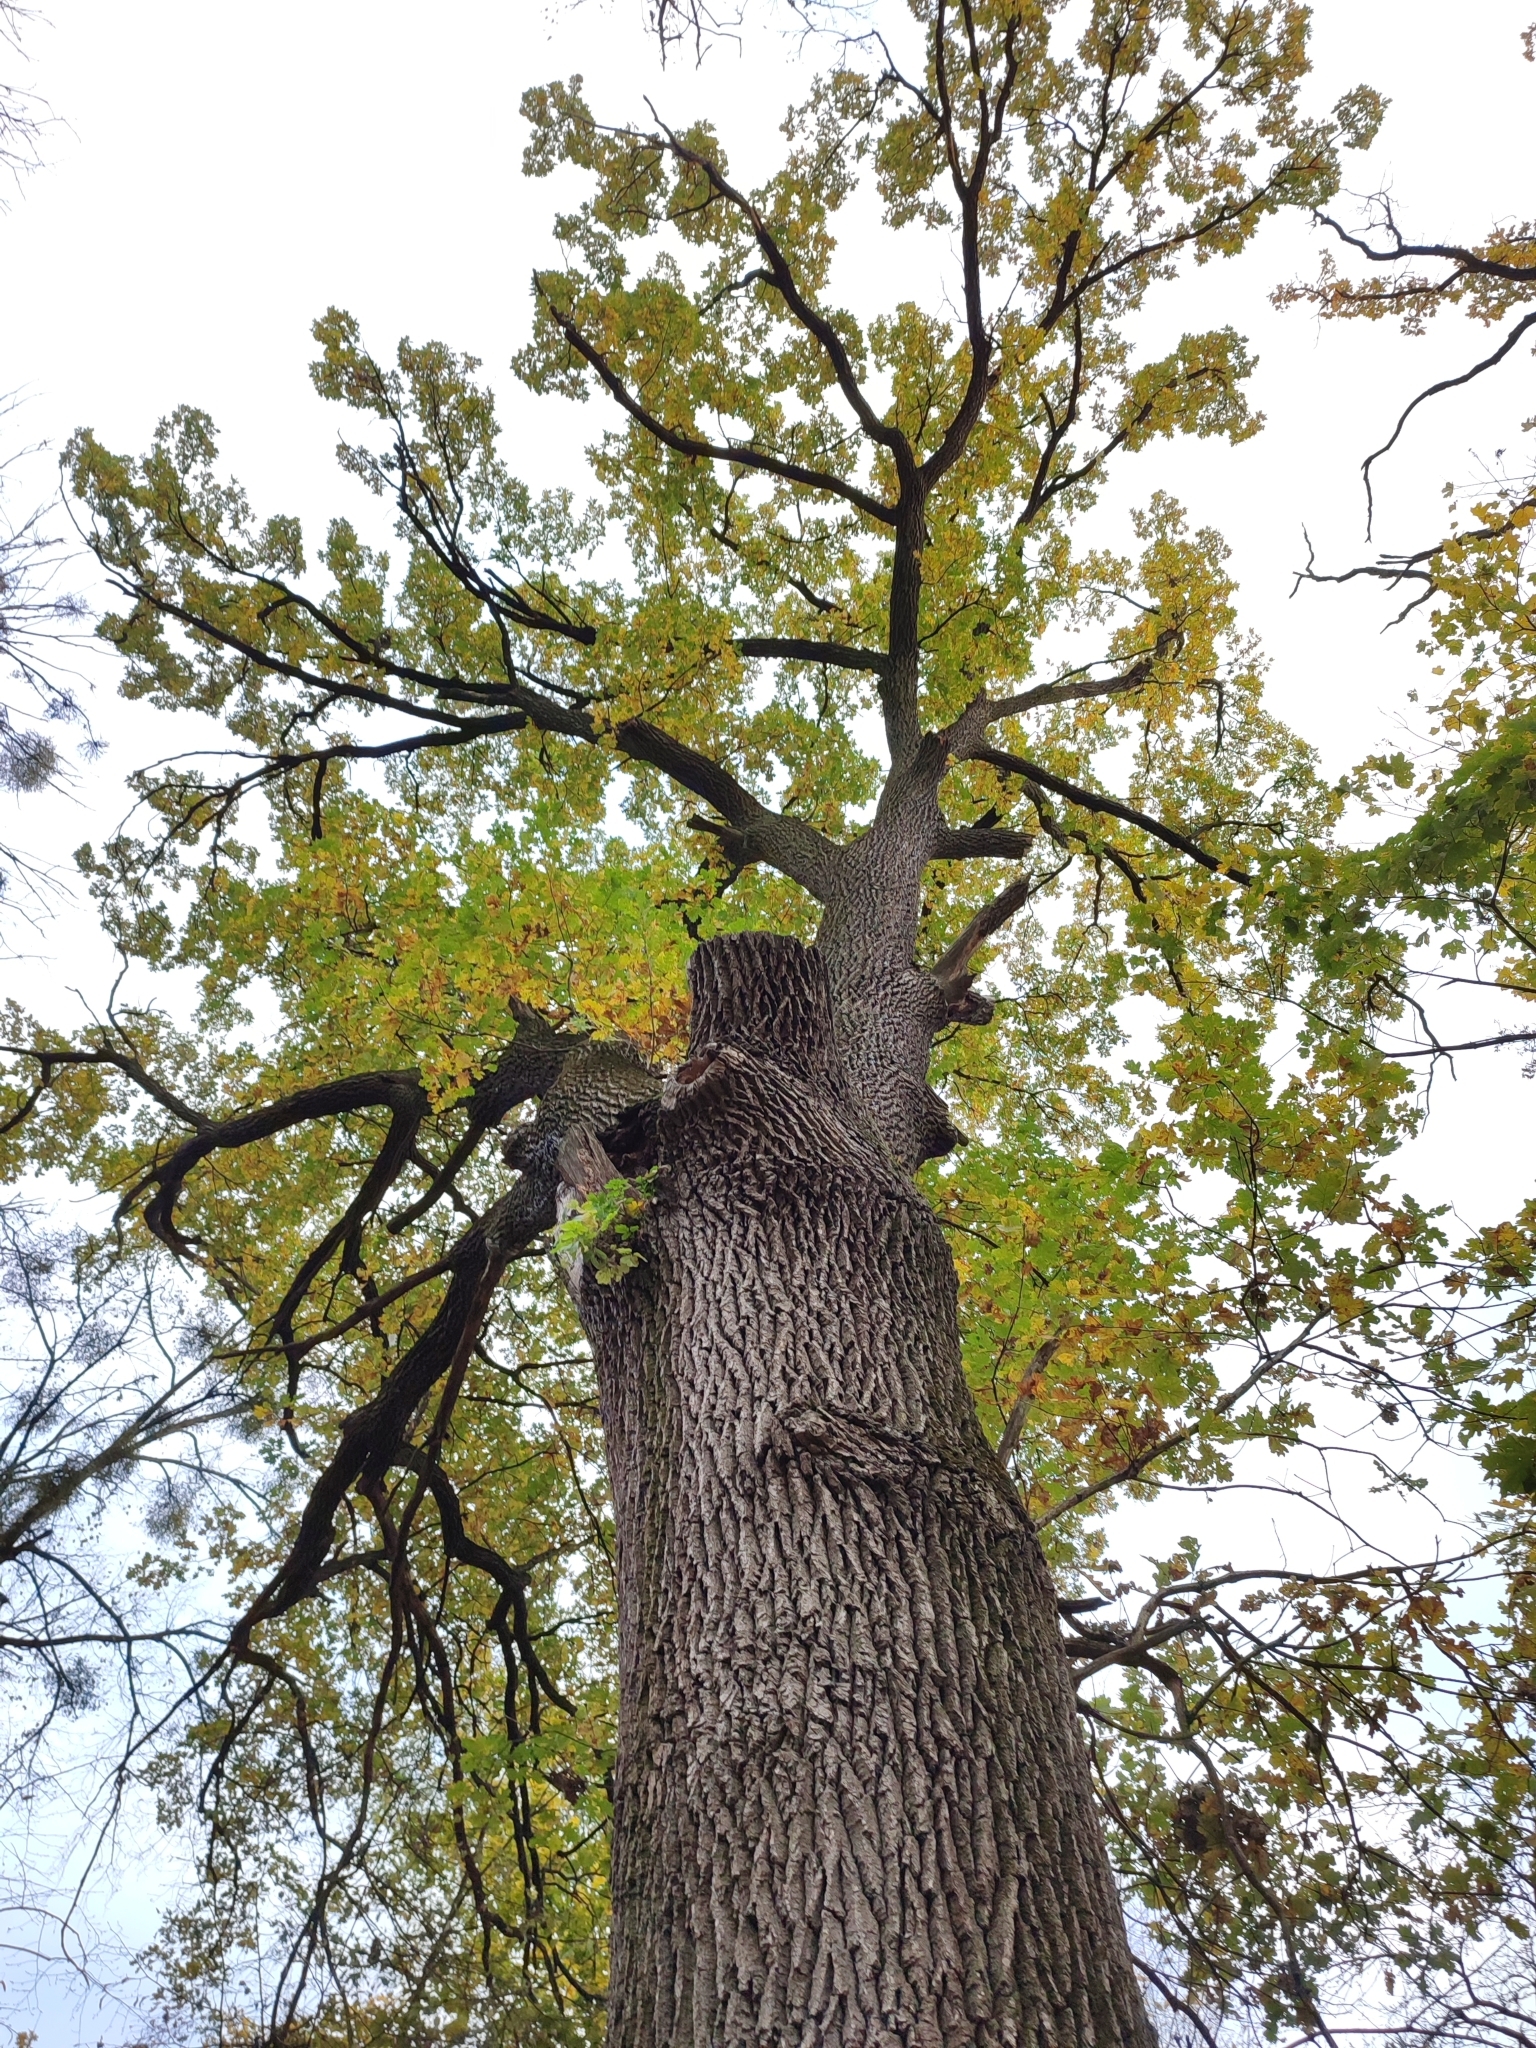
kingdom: Plantae
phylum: Tracheophyta
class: Magnoliopsida
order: Fagales
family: Fagaceae
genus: Quercus
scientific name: Quercus robur
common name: Pedunculate oak
